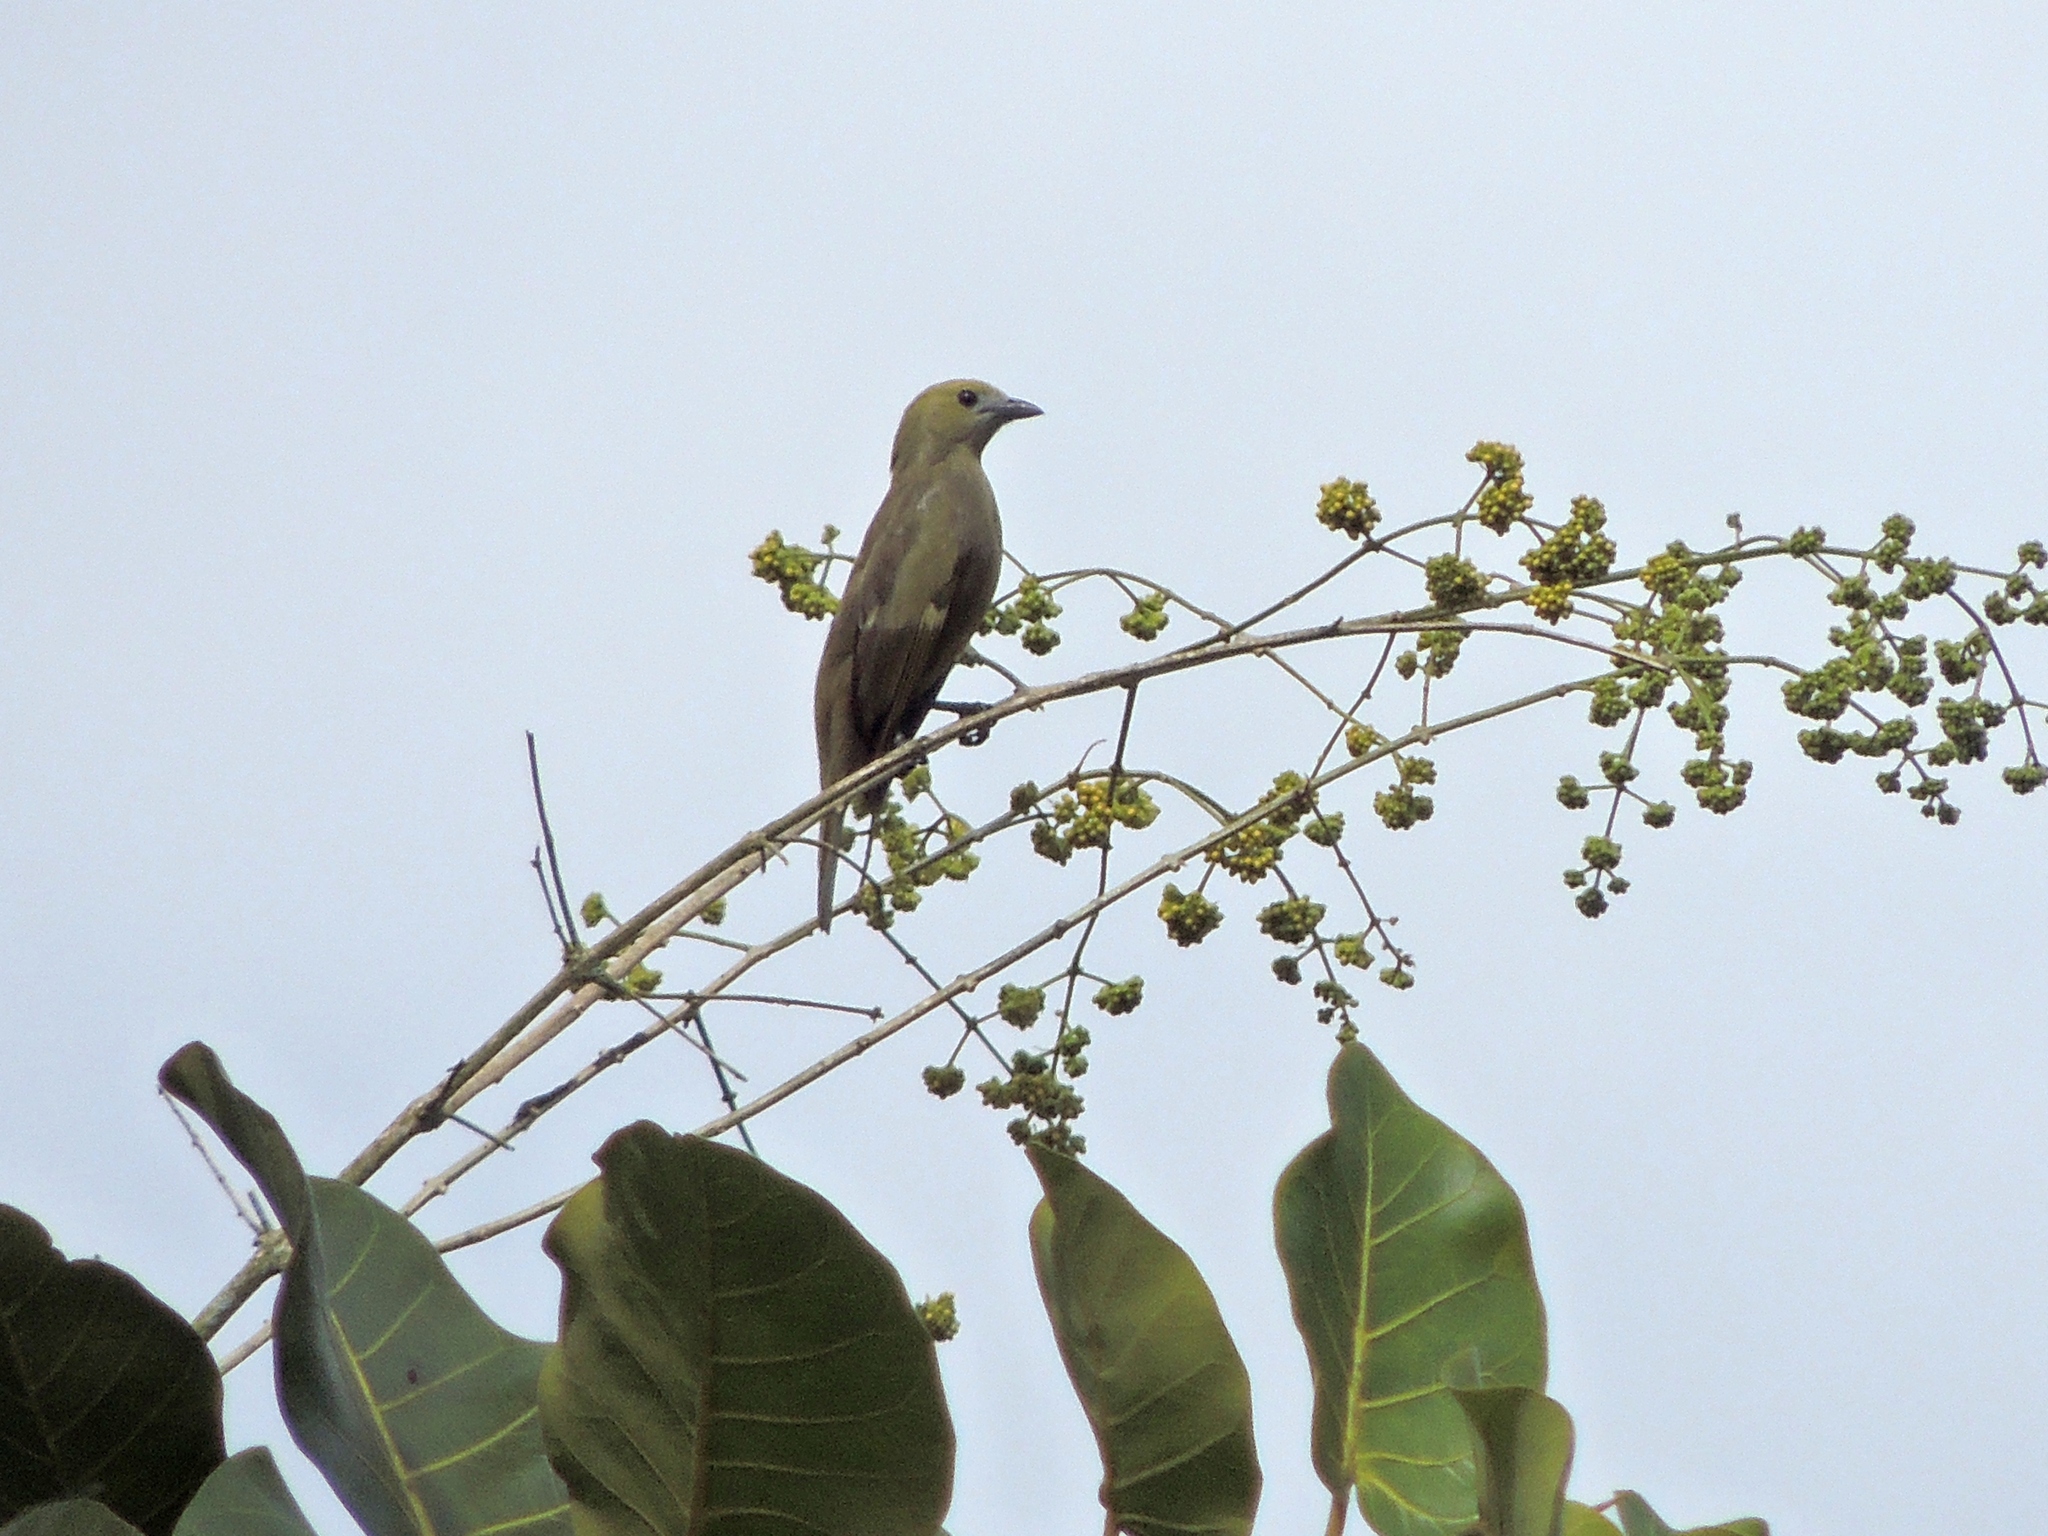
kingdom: Animalia
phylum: Chordata
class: Aves
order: Passeriformes
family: Thraupidae
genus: Thraupis
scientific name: Thraupis palmarum
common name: Palm tanager
